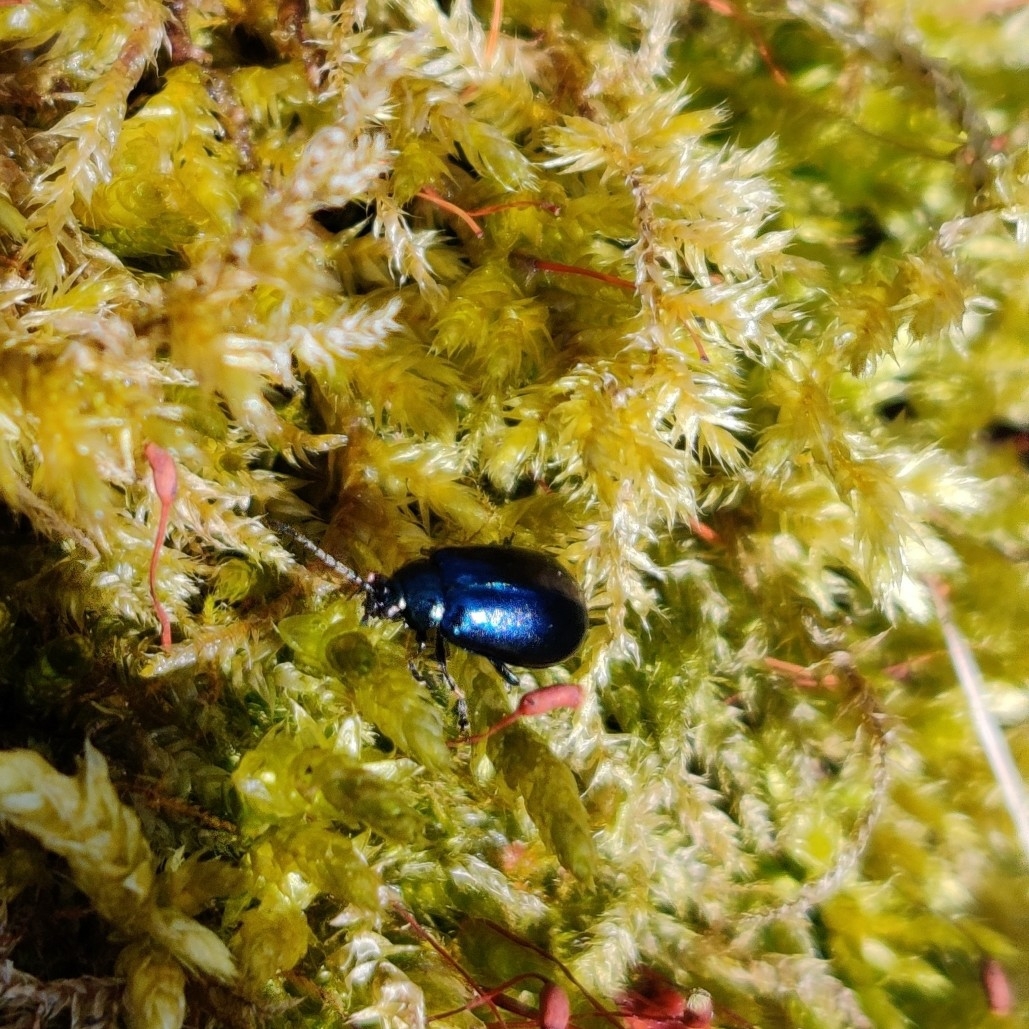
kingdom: Animalia
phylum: Arthropoda
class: Insecta
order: Coleoptera
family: Chrysomelidae
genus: Agelastica
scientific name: Agelastica alni
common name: Alder leaf beetle
